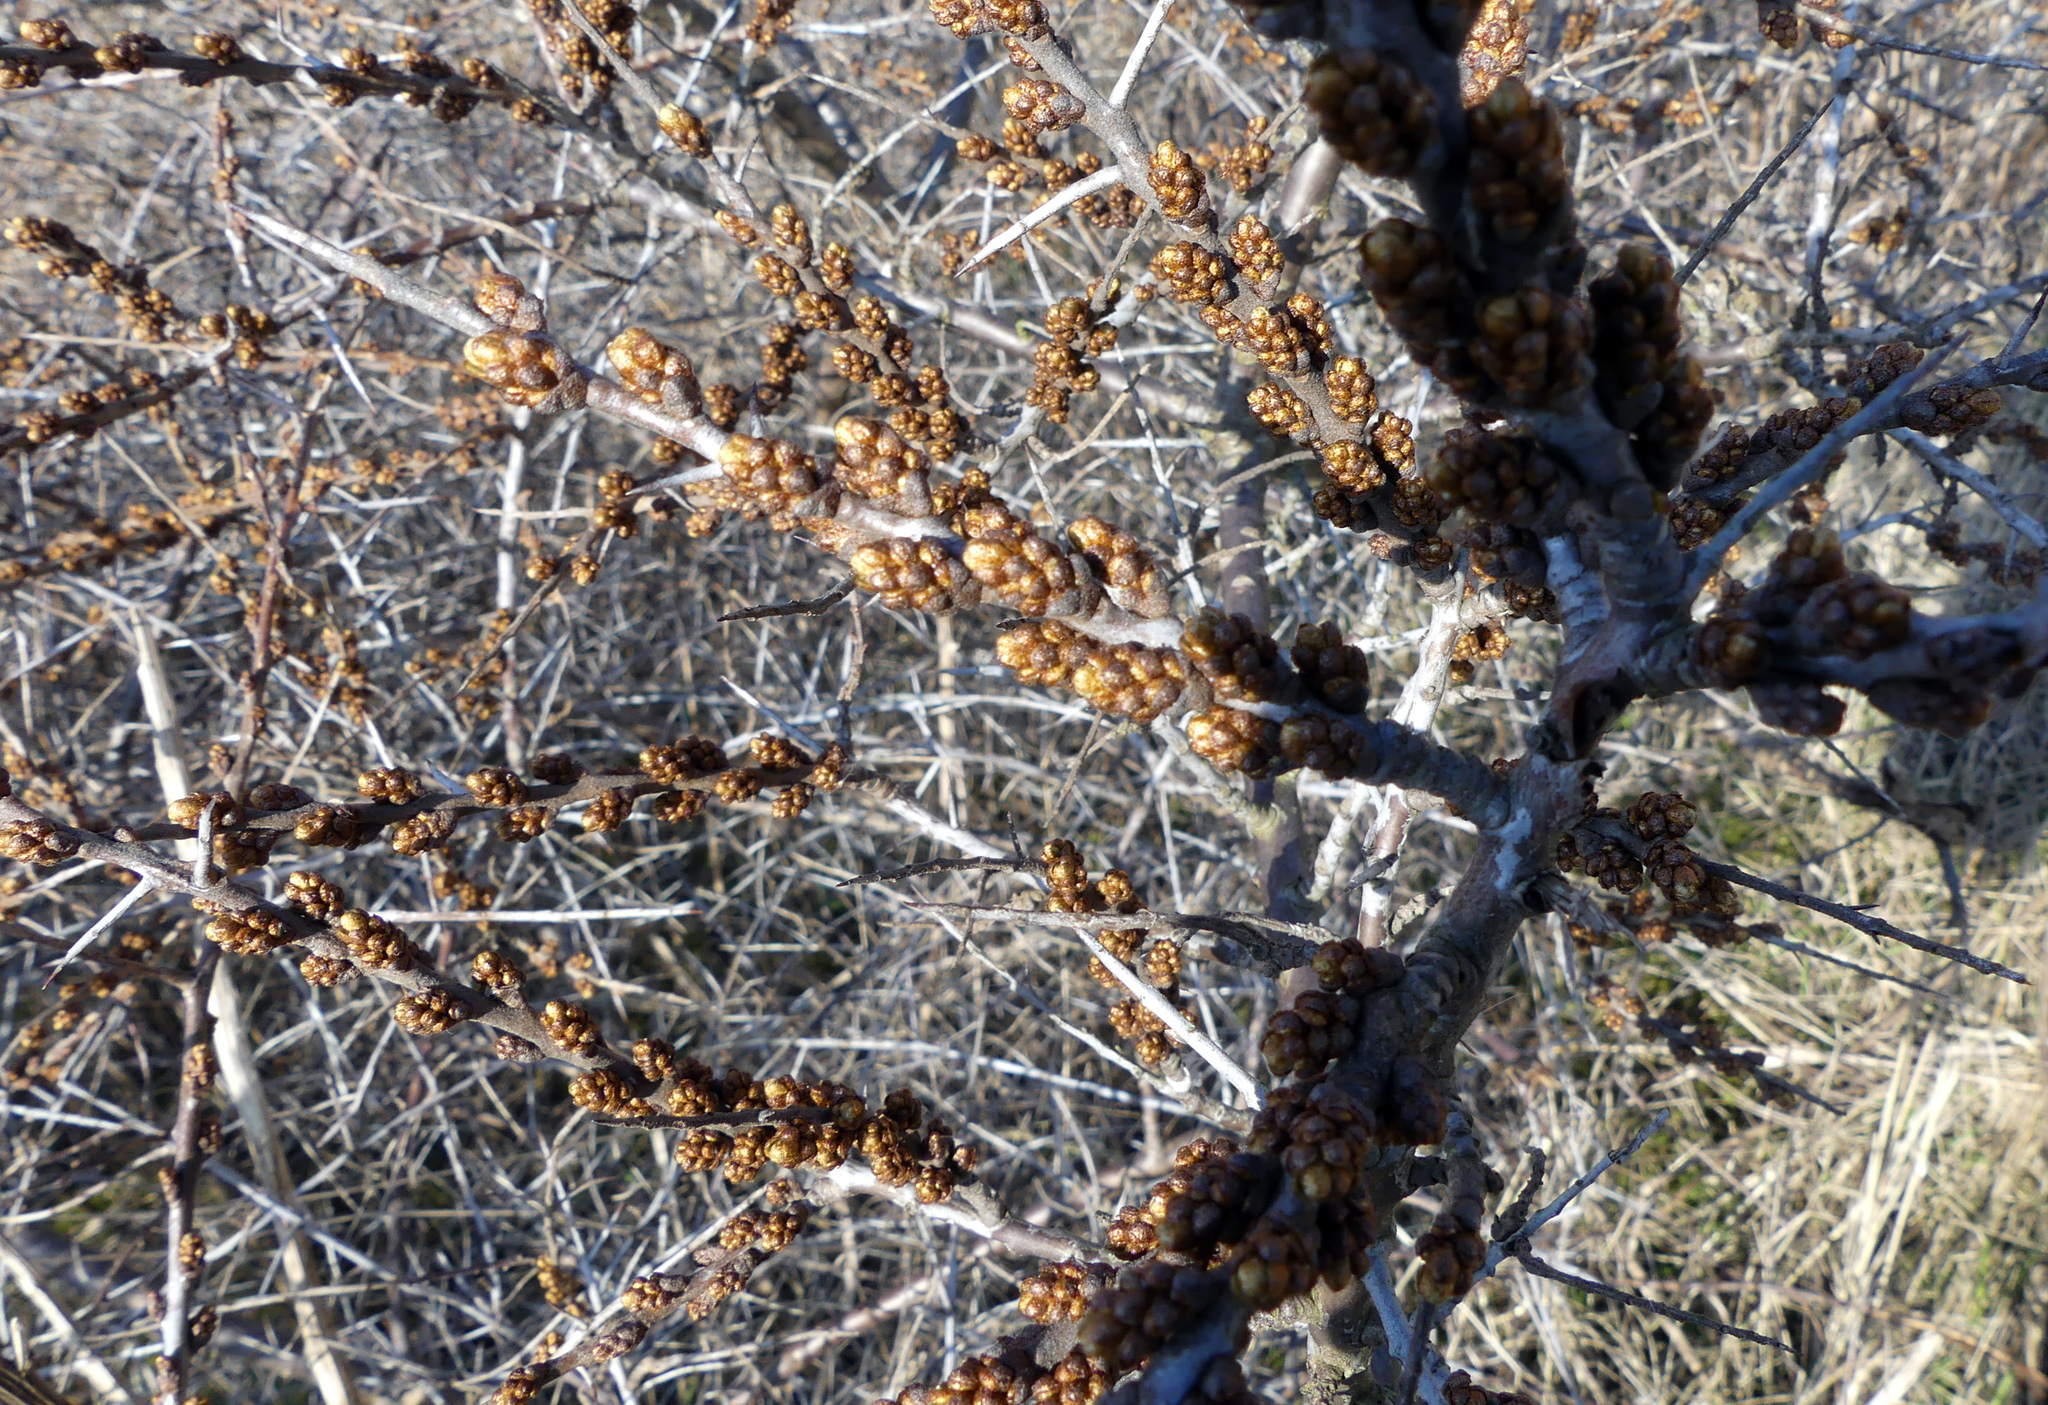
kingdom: Plantae
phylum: Tracheophyta
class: Magnoliopsida
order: Rosales
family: Elaeagnaceae
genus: Hippophae
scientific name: Hippophae rhamnoides
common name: Sea-buckthorn
